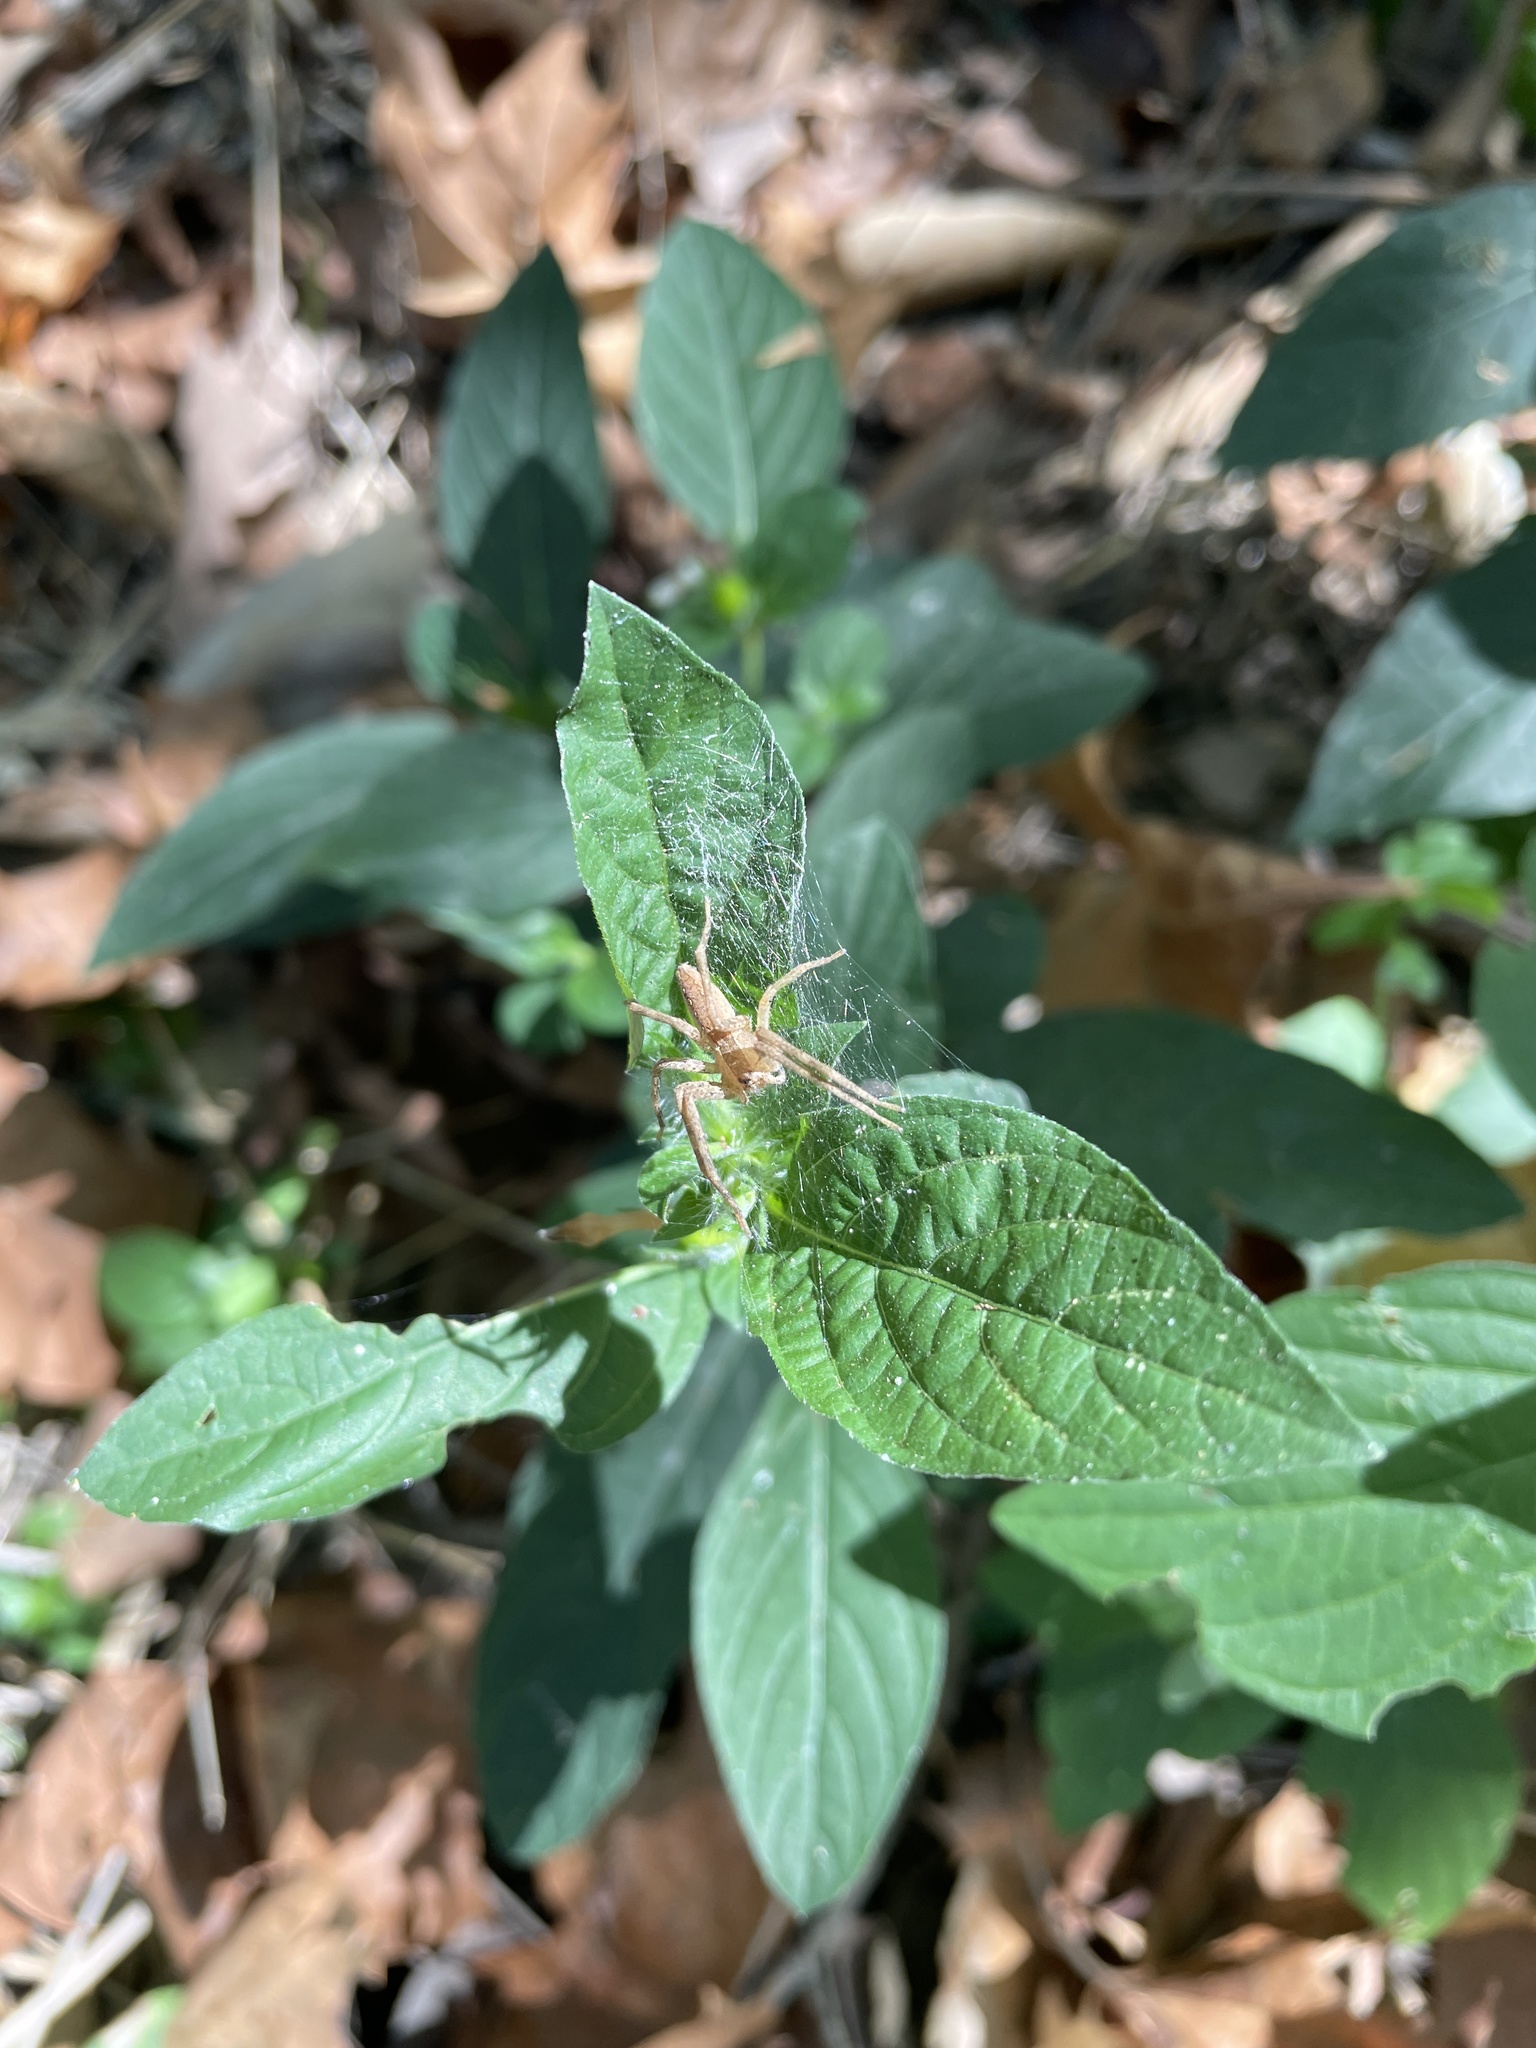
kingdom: Animalia
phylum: Arthropoda
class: Arachnida
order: Araneae
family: Pisauridae
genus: Pisaurina
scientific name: Pisaurina mira
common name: American nursery web spider
